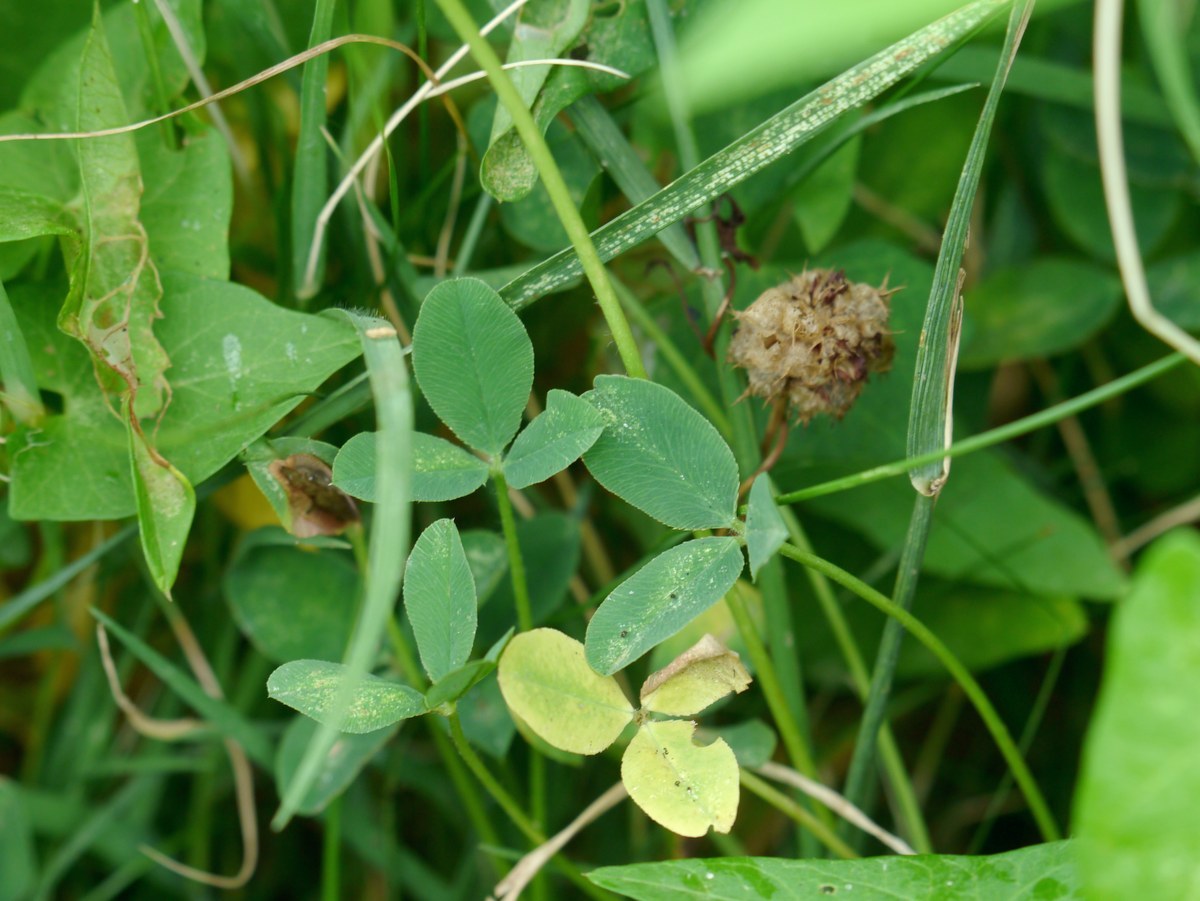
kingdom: Plantae
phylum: Tracheophyta
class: Magnoliopsida
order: Fabales
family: Fabaceae
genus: Trifolium
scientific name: Trifolium fragiferum
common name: Strawberry clover
